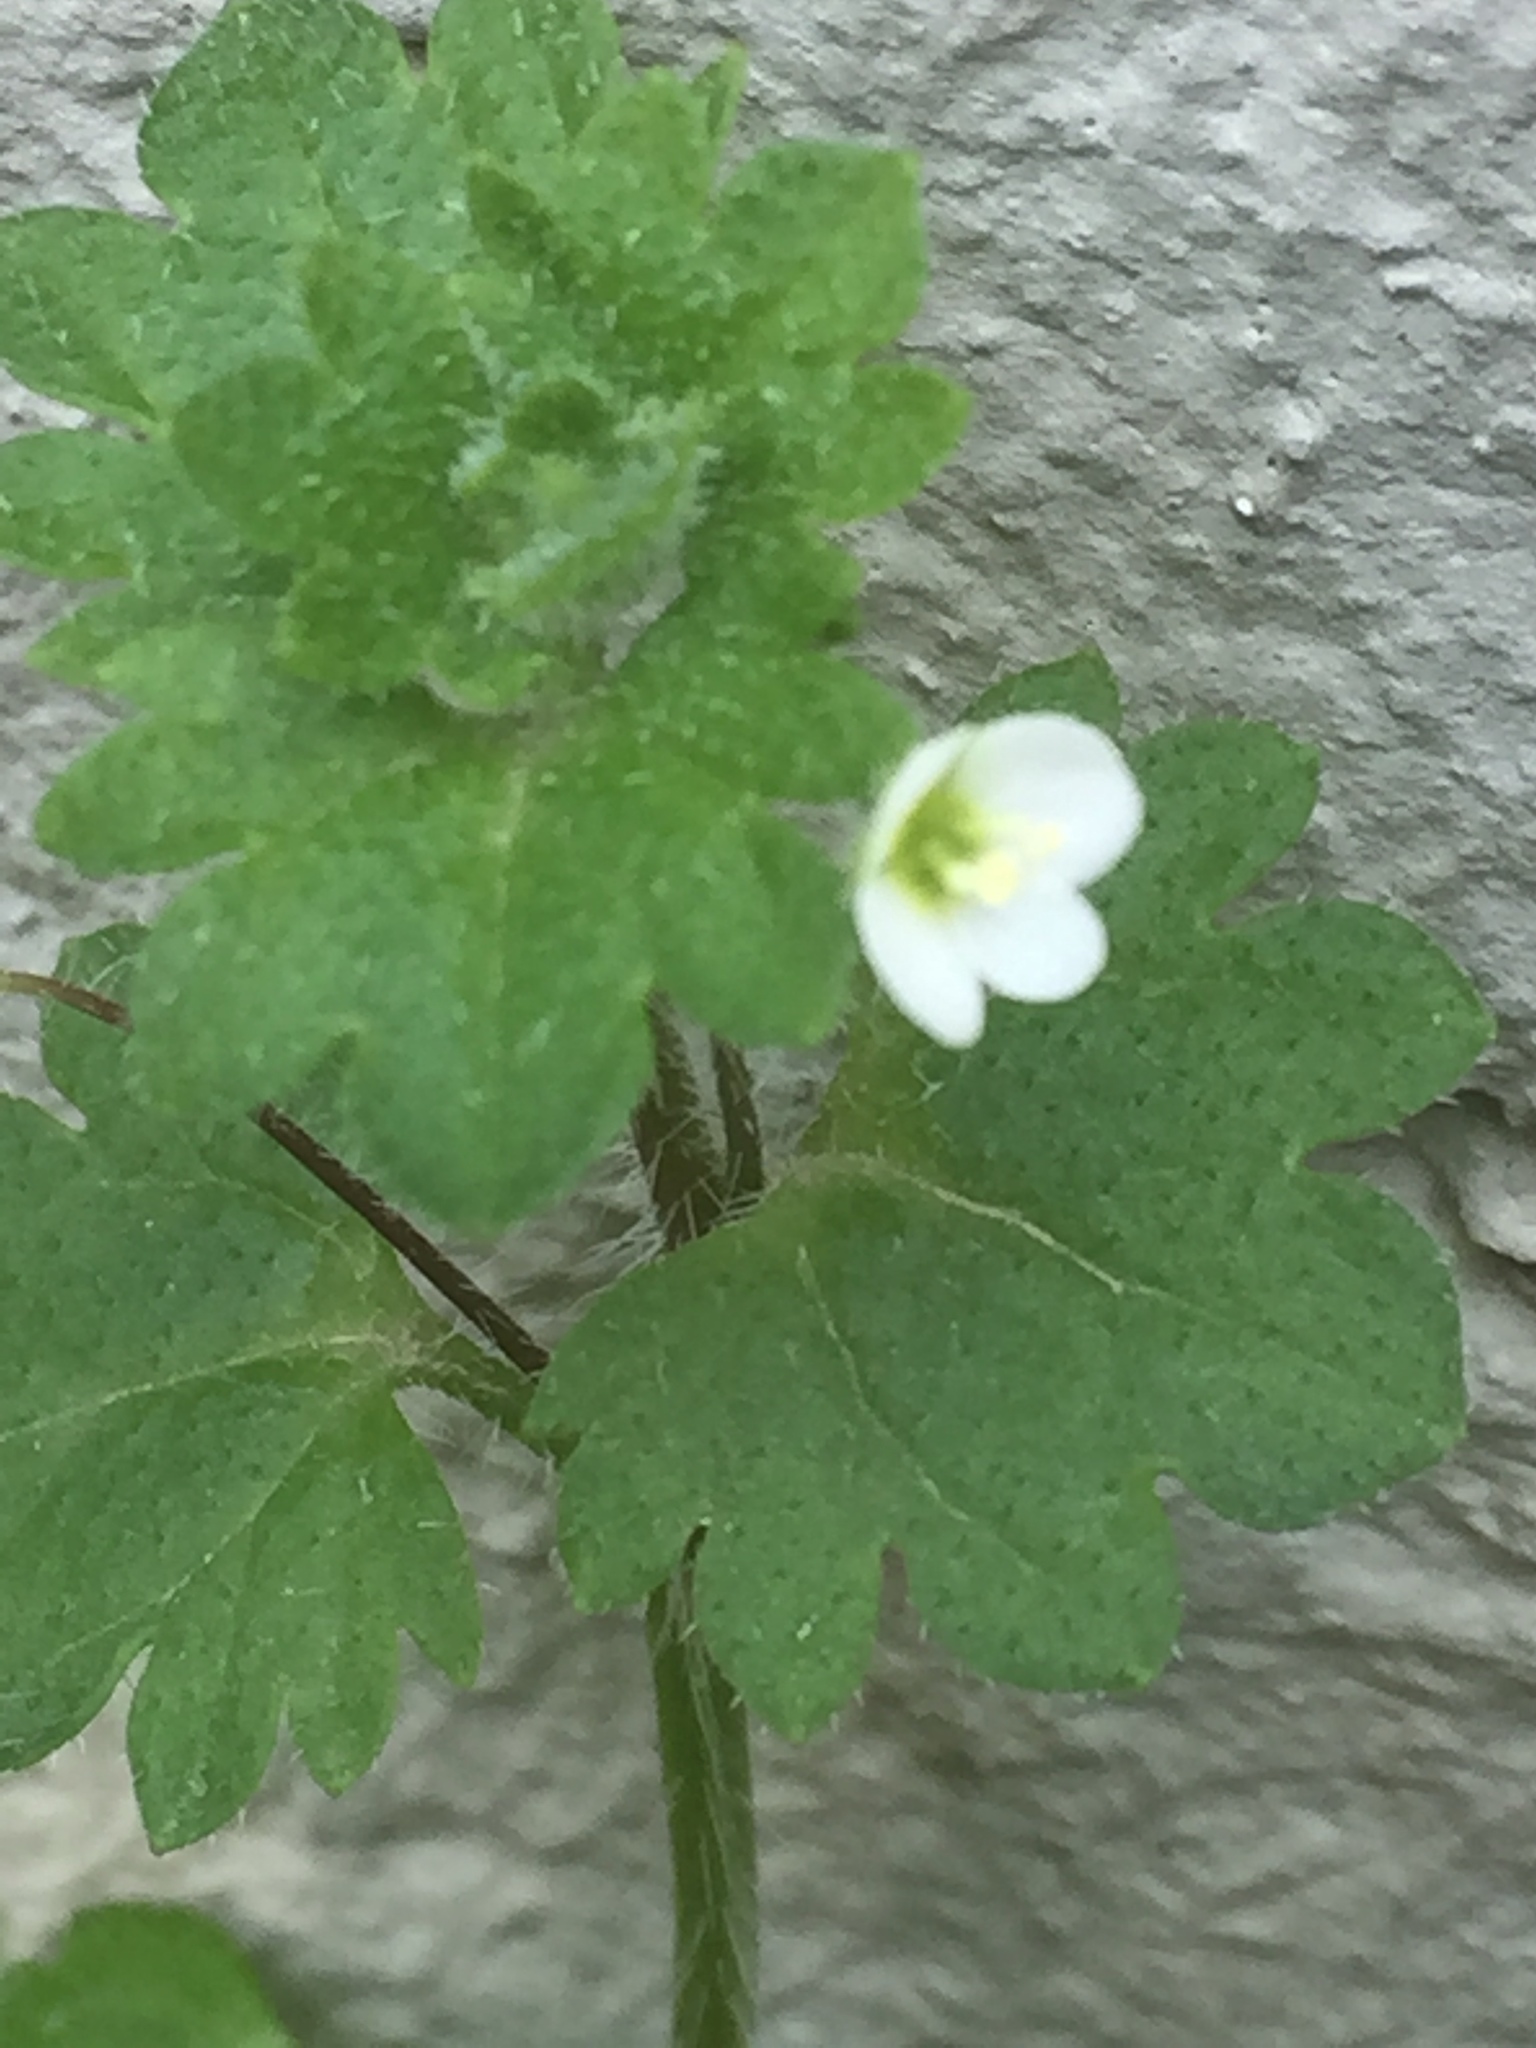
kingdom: Plantae
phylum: Tracheophyta
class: Magnoliopsida
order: Lamiales
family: Plantaginaceae
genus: Veronica
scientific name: Veronica cymbalaria
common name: Pale speedwell
